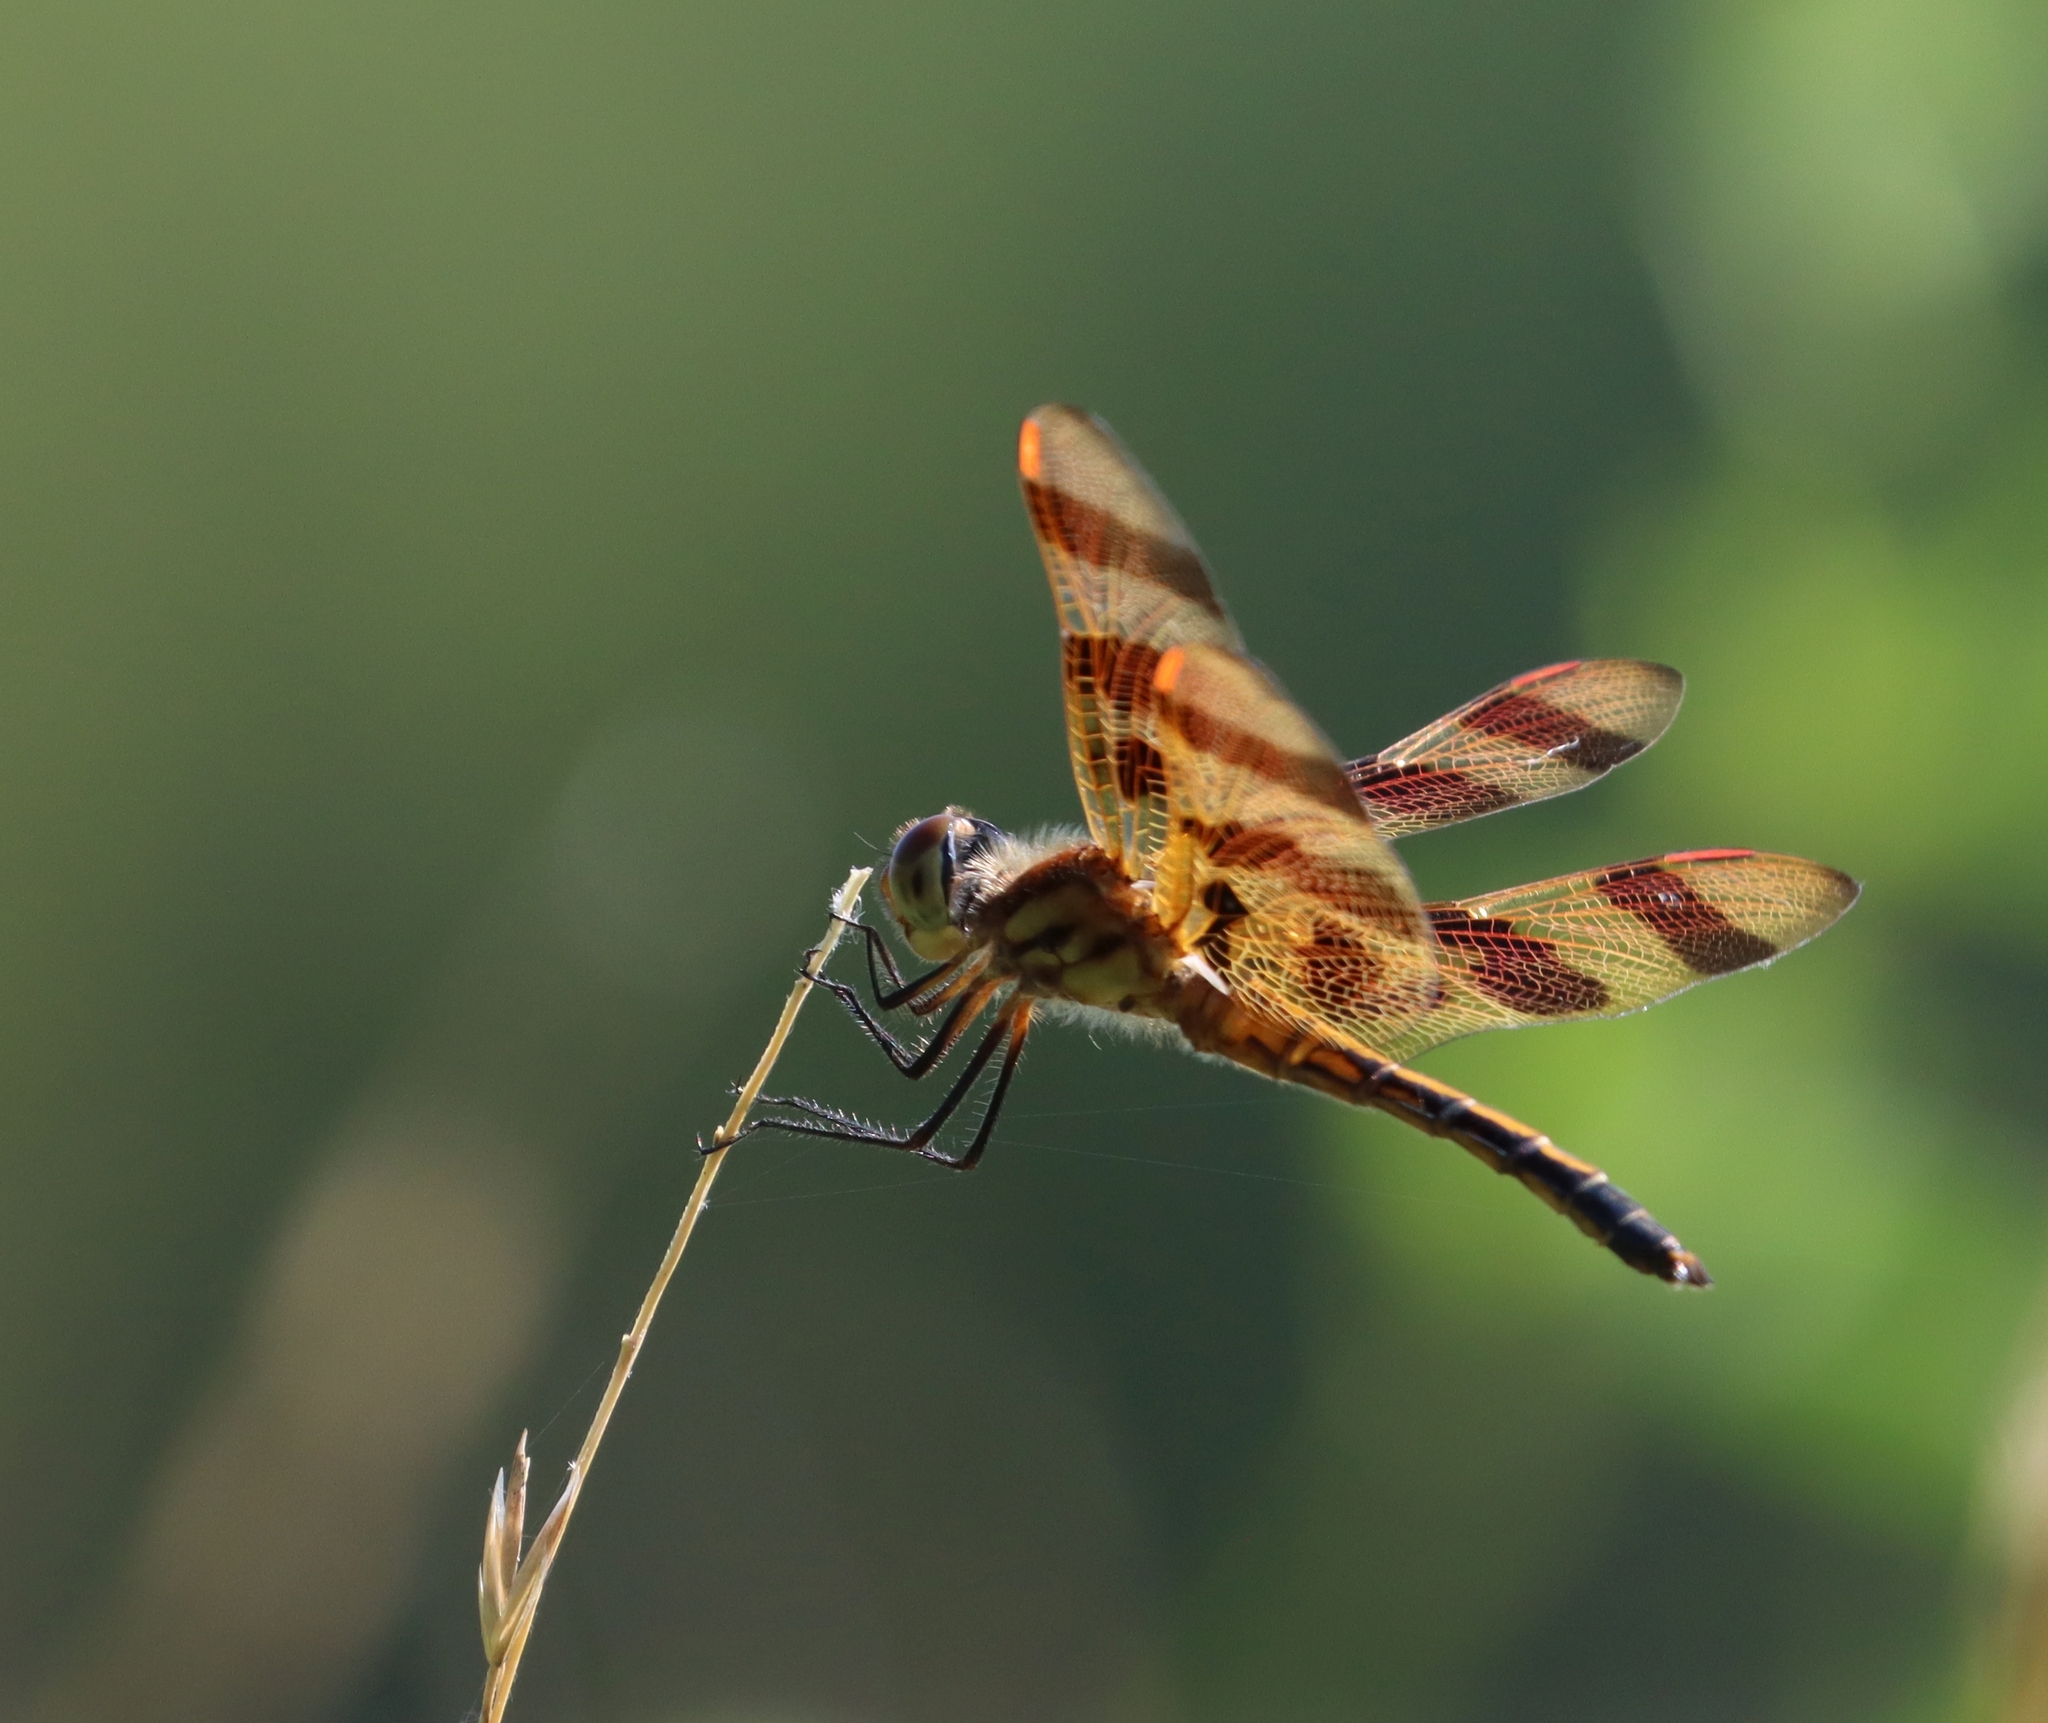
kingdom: Animalia
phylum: Arthropoda
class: Insecta
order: Odonata
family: Libellulidae
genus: Celithemis
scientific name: Celithemis eponina
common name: Halloween pennant
